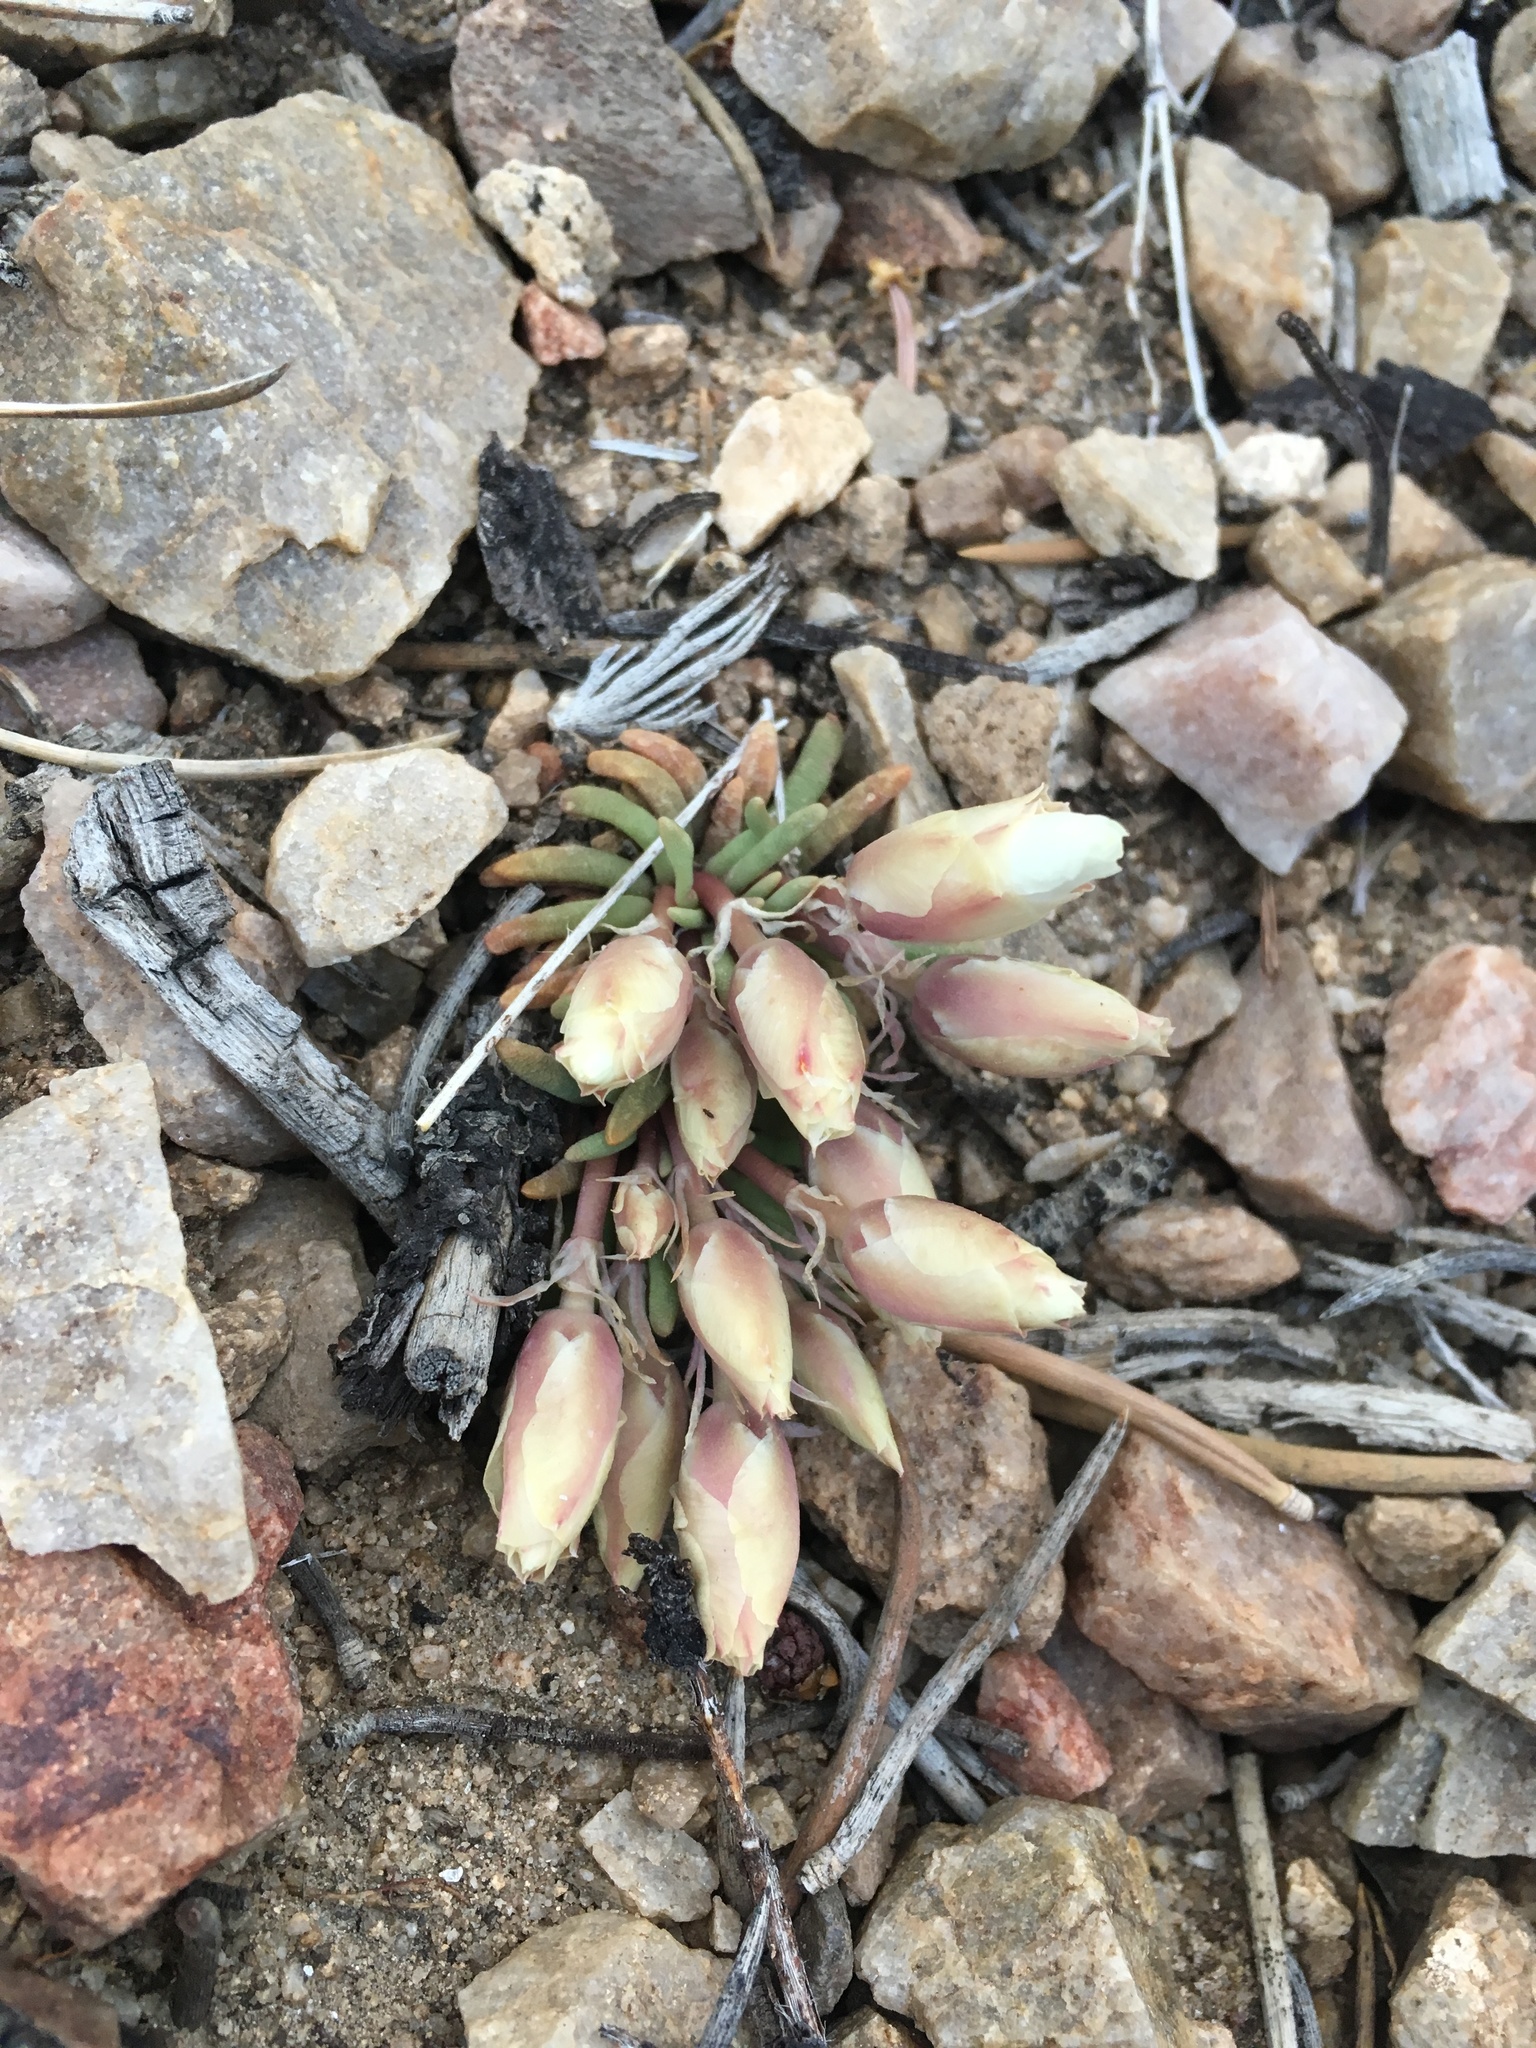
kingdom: Plantae
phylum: Tracheophyta
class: Magnoliopsida
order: Caryophyllales
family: Montiaceae
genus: Lewisia
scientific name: Lewisia rediviva
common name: Bitter-root
